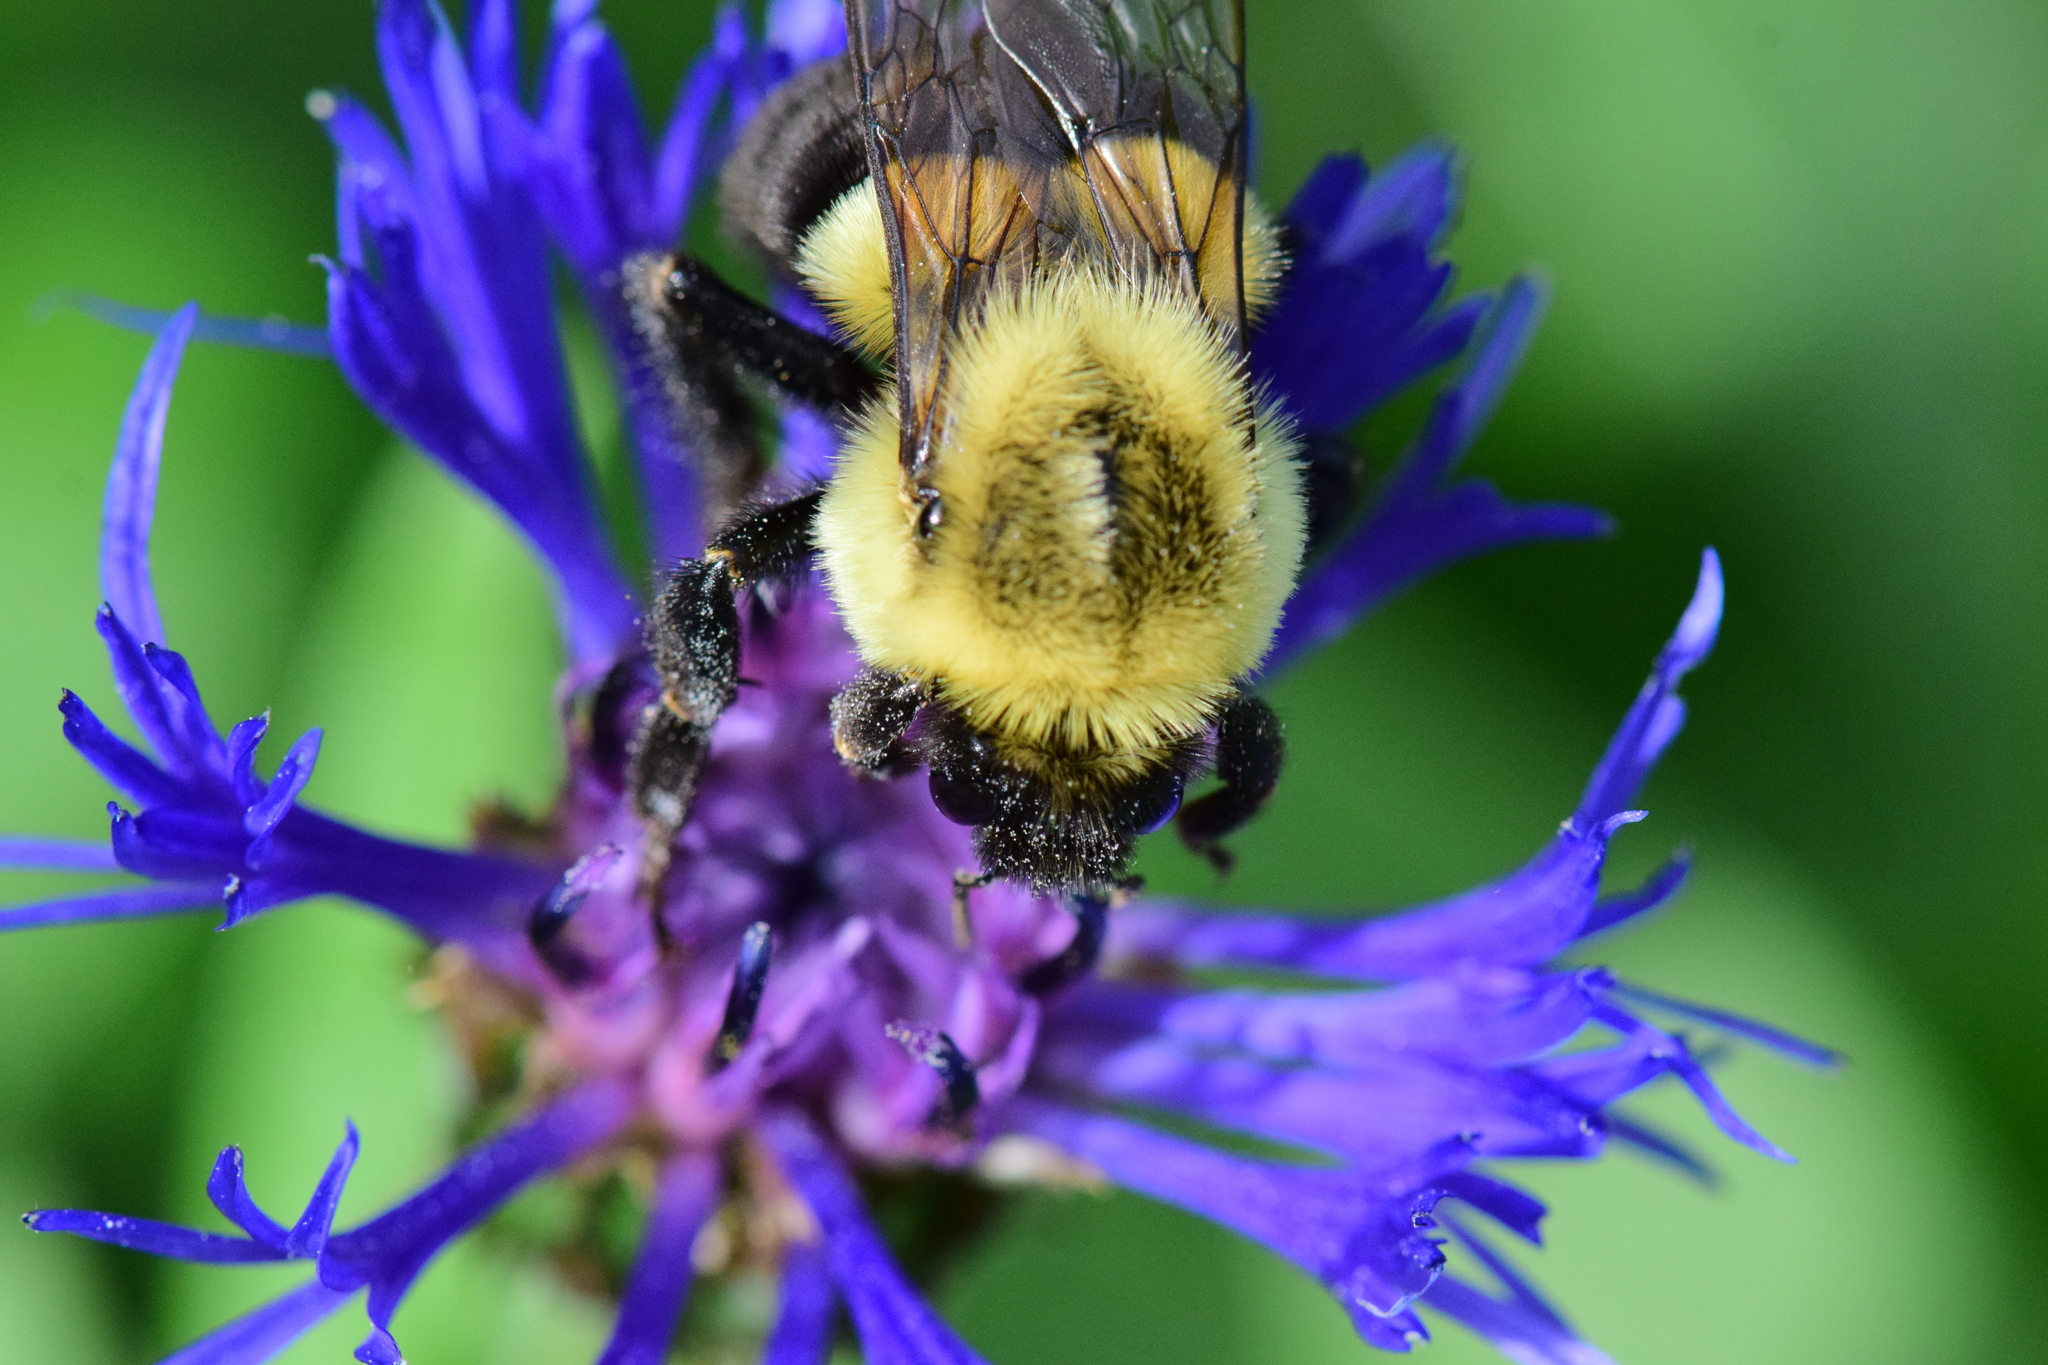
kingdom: Animalia
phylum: Arthropoda
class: Insecta
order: Hymenoptera
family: Apidae
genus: Bombus
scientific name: Bombus impatiens
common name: Common eastern bumble bee
